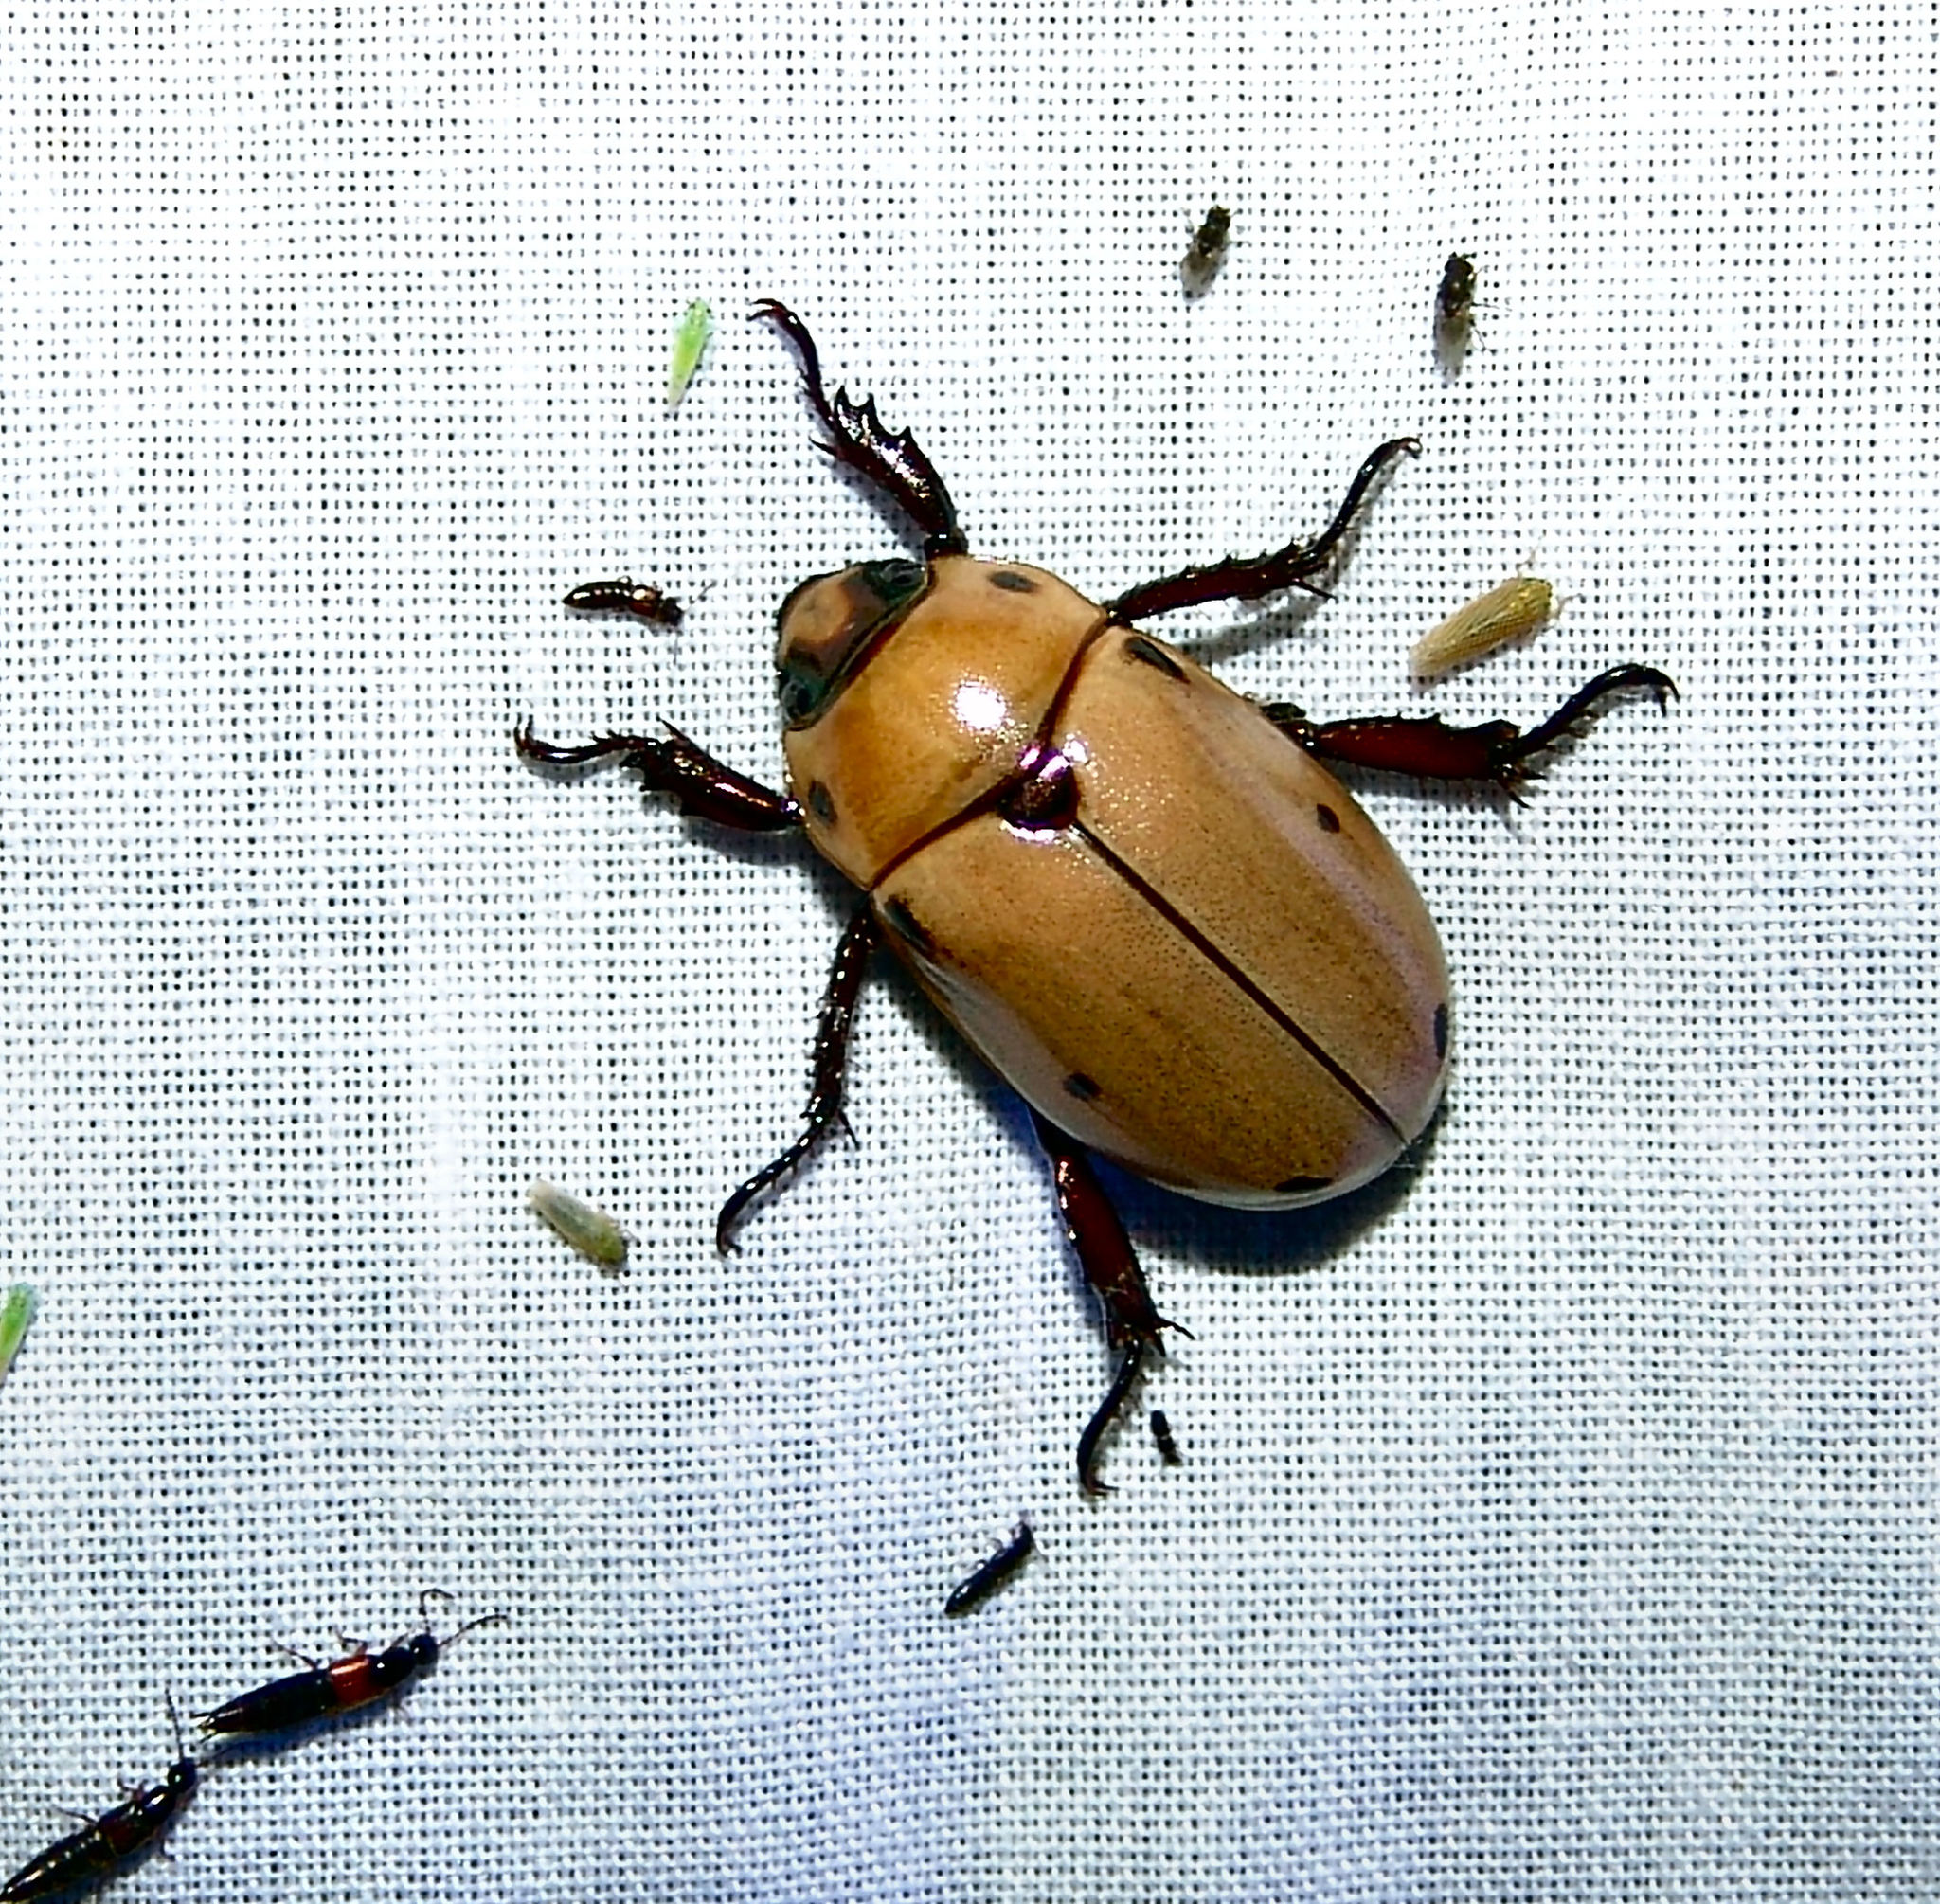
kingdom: Animalia
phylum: Arthropoda
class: Insecta
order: Coleoptera
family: Scarabaeidae
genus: Pelidnota
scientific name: Pelidnota punctata
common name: Grapevine beetle
